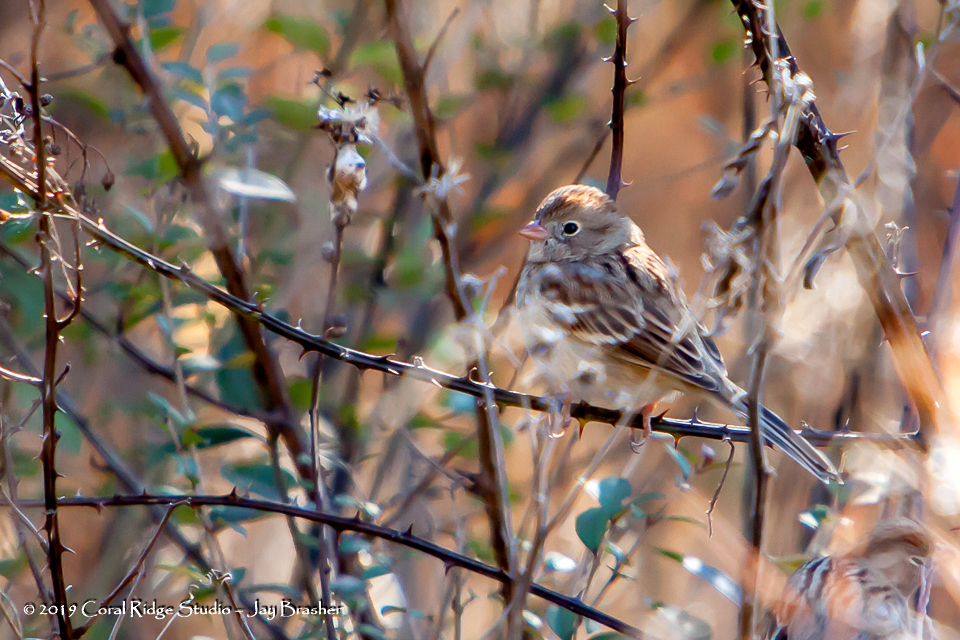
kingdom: Animalia
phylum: Chordata
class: Aves
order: Passeriformes
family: Passerellidae
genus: Spizella
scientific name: Spizella pusilla
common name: Field sparrow
